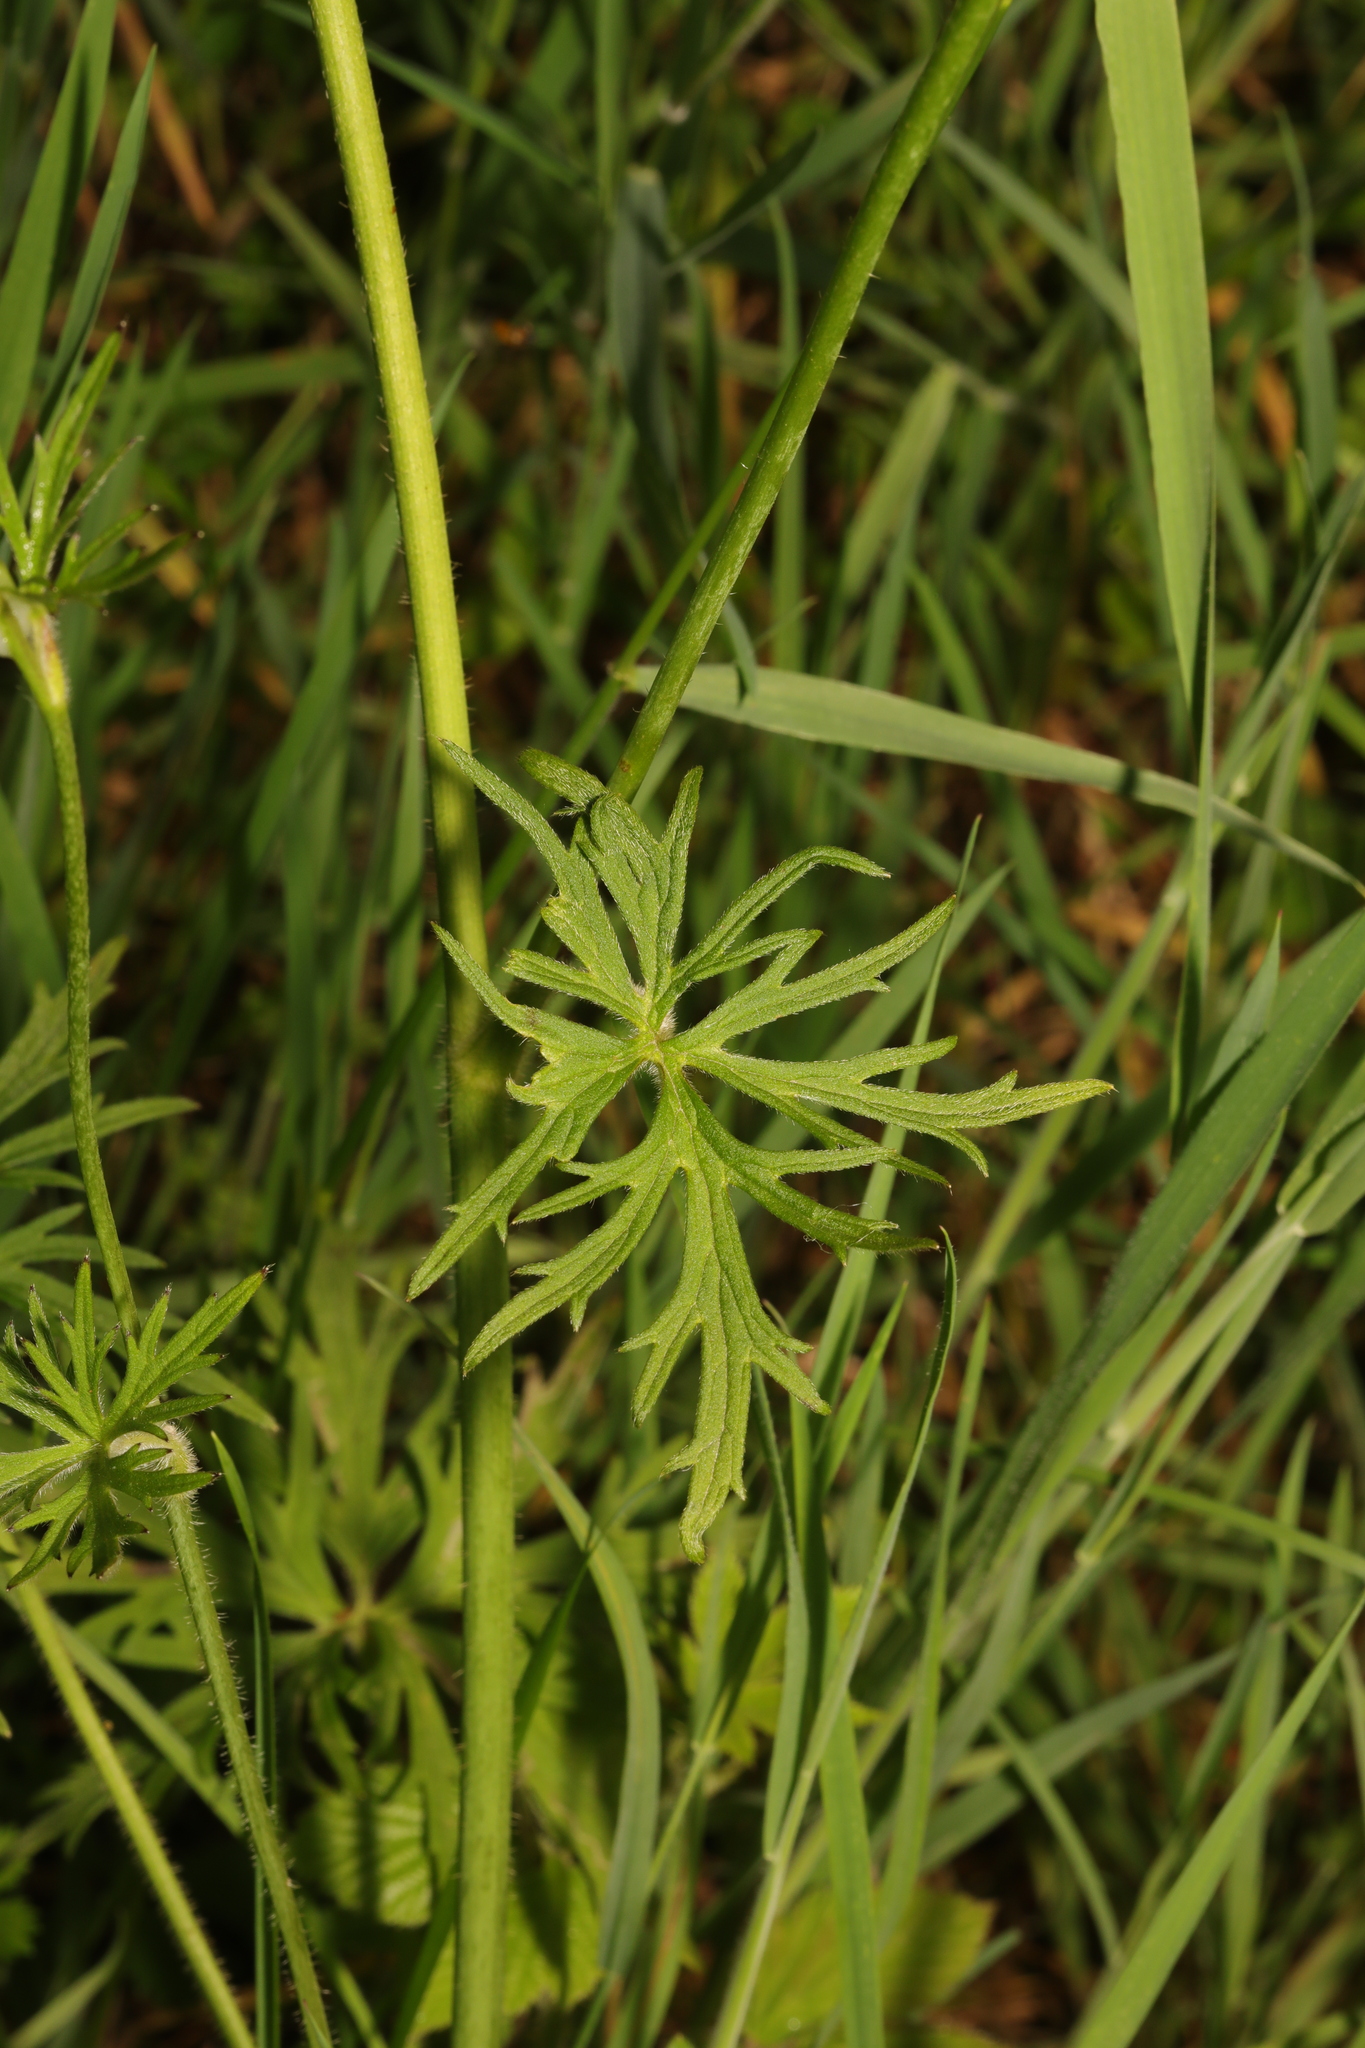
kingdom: Plantae
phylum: Tracheophyta
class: Magnoliopsida
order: Ranunculales
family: Ranunculaceae
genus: Ranunculus
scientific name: Ranunculus acris
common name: Meadow buttercup
